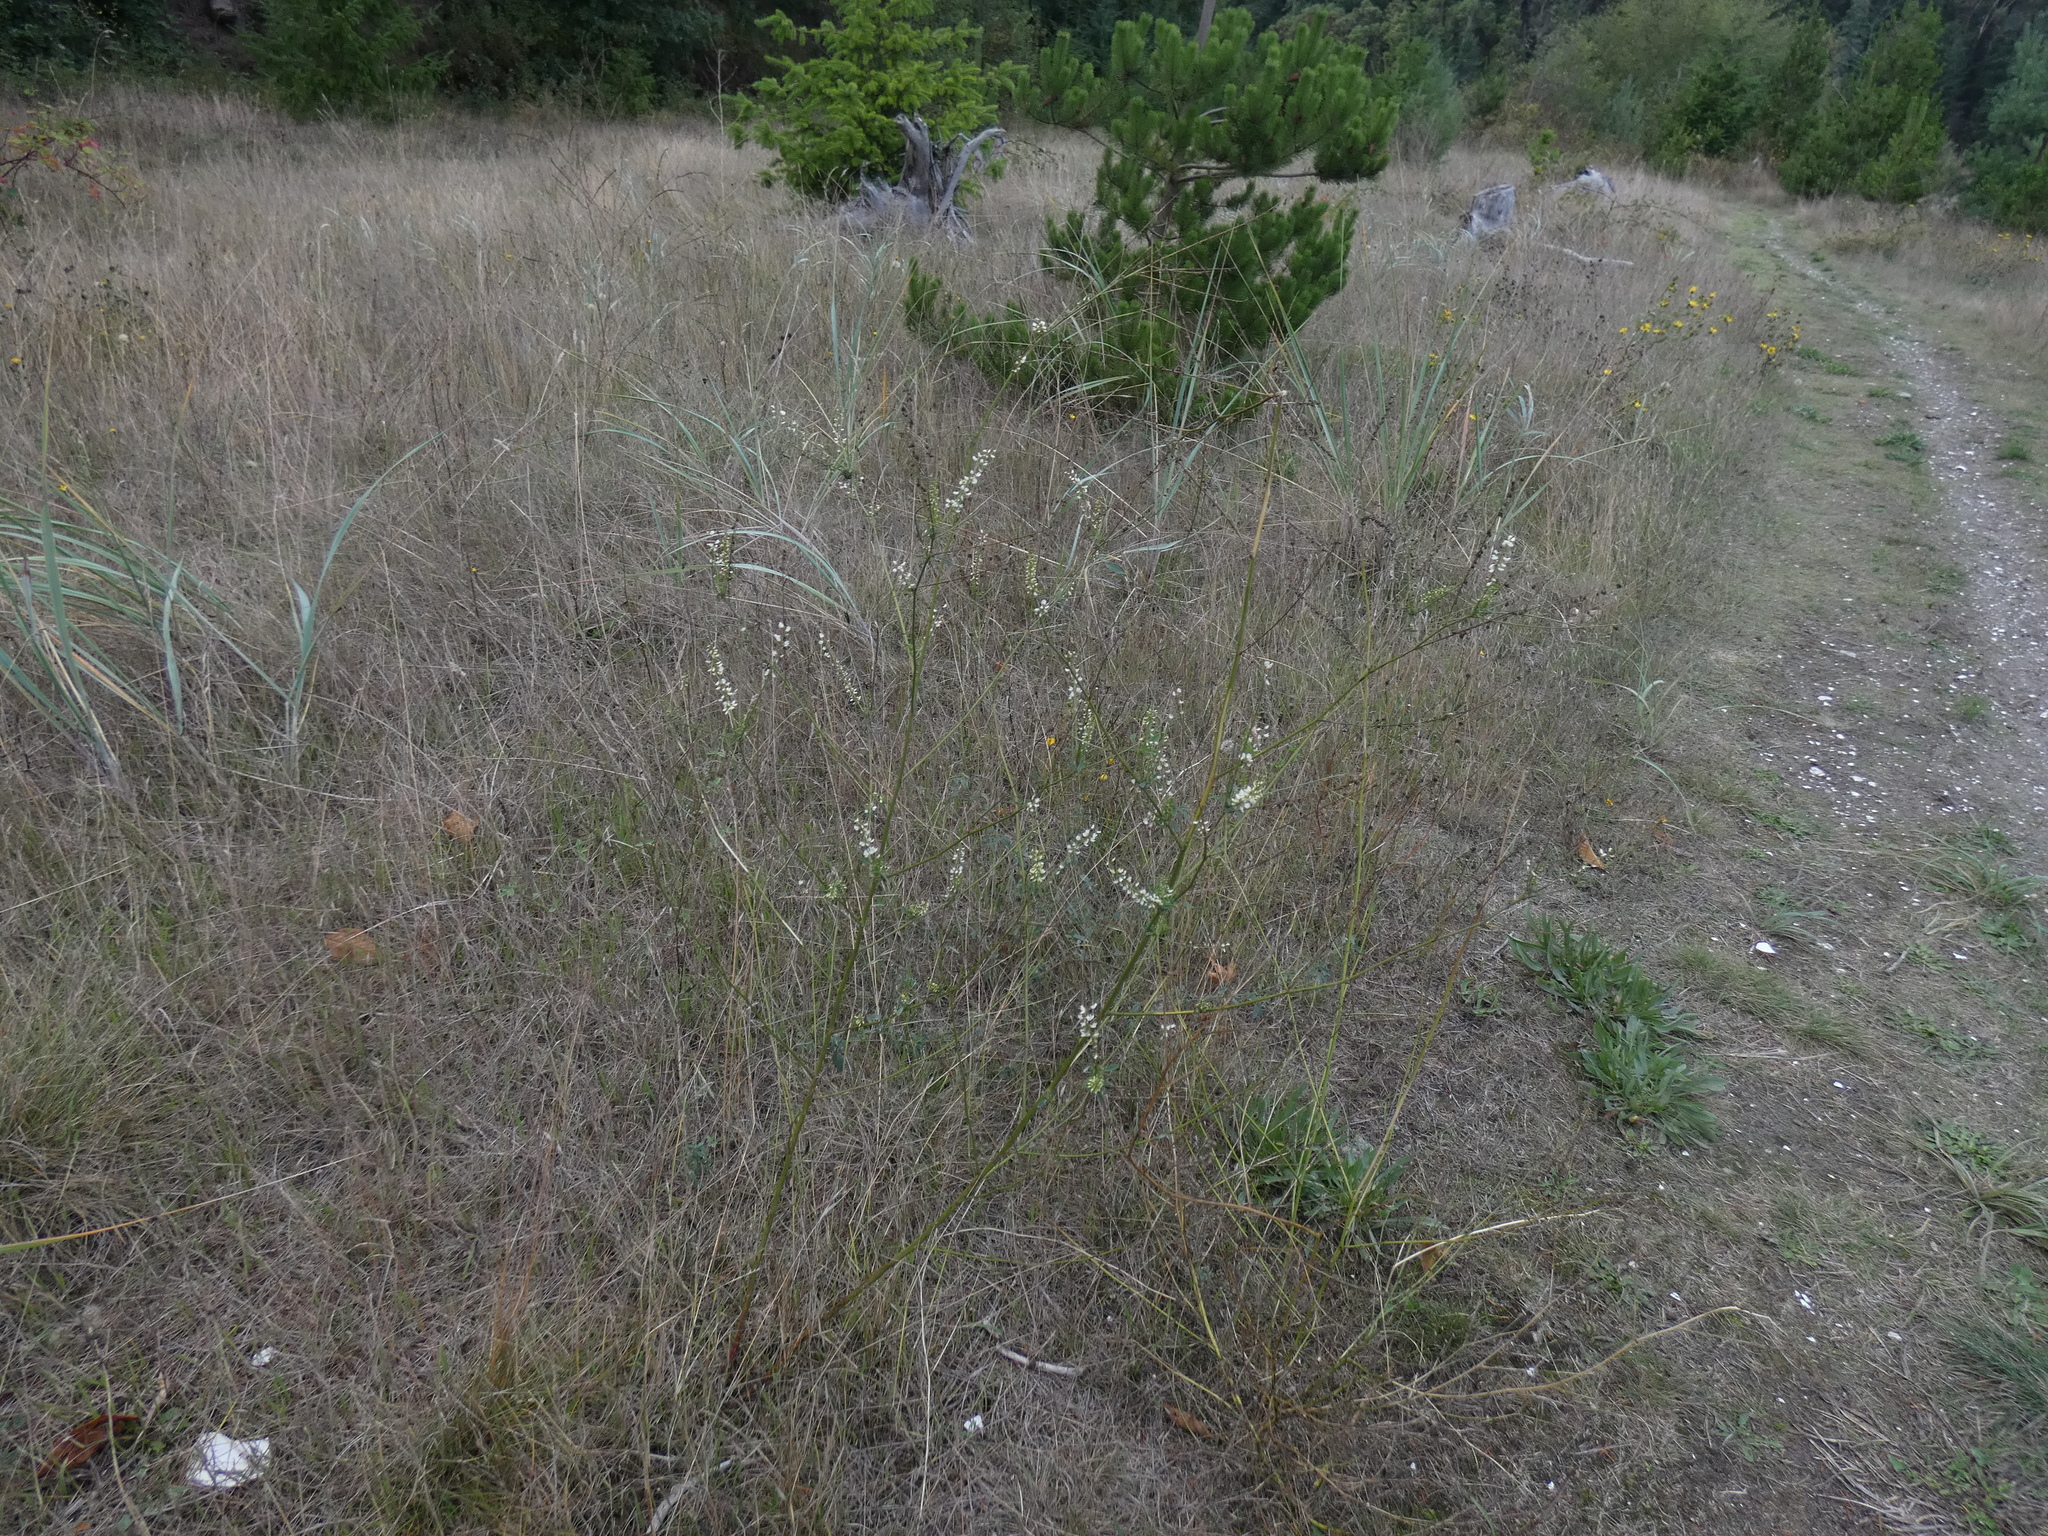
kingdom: Plantae
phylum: Tracheophyta
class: Magnoliopsida
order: Fabales
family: Fabaceae
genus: Melilotus
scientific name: Melilotus albus
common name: White melilot
